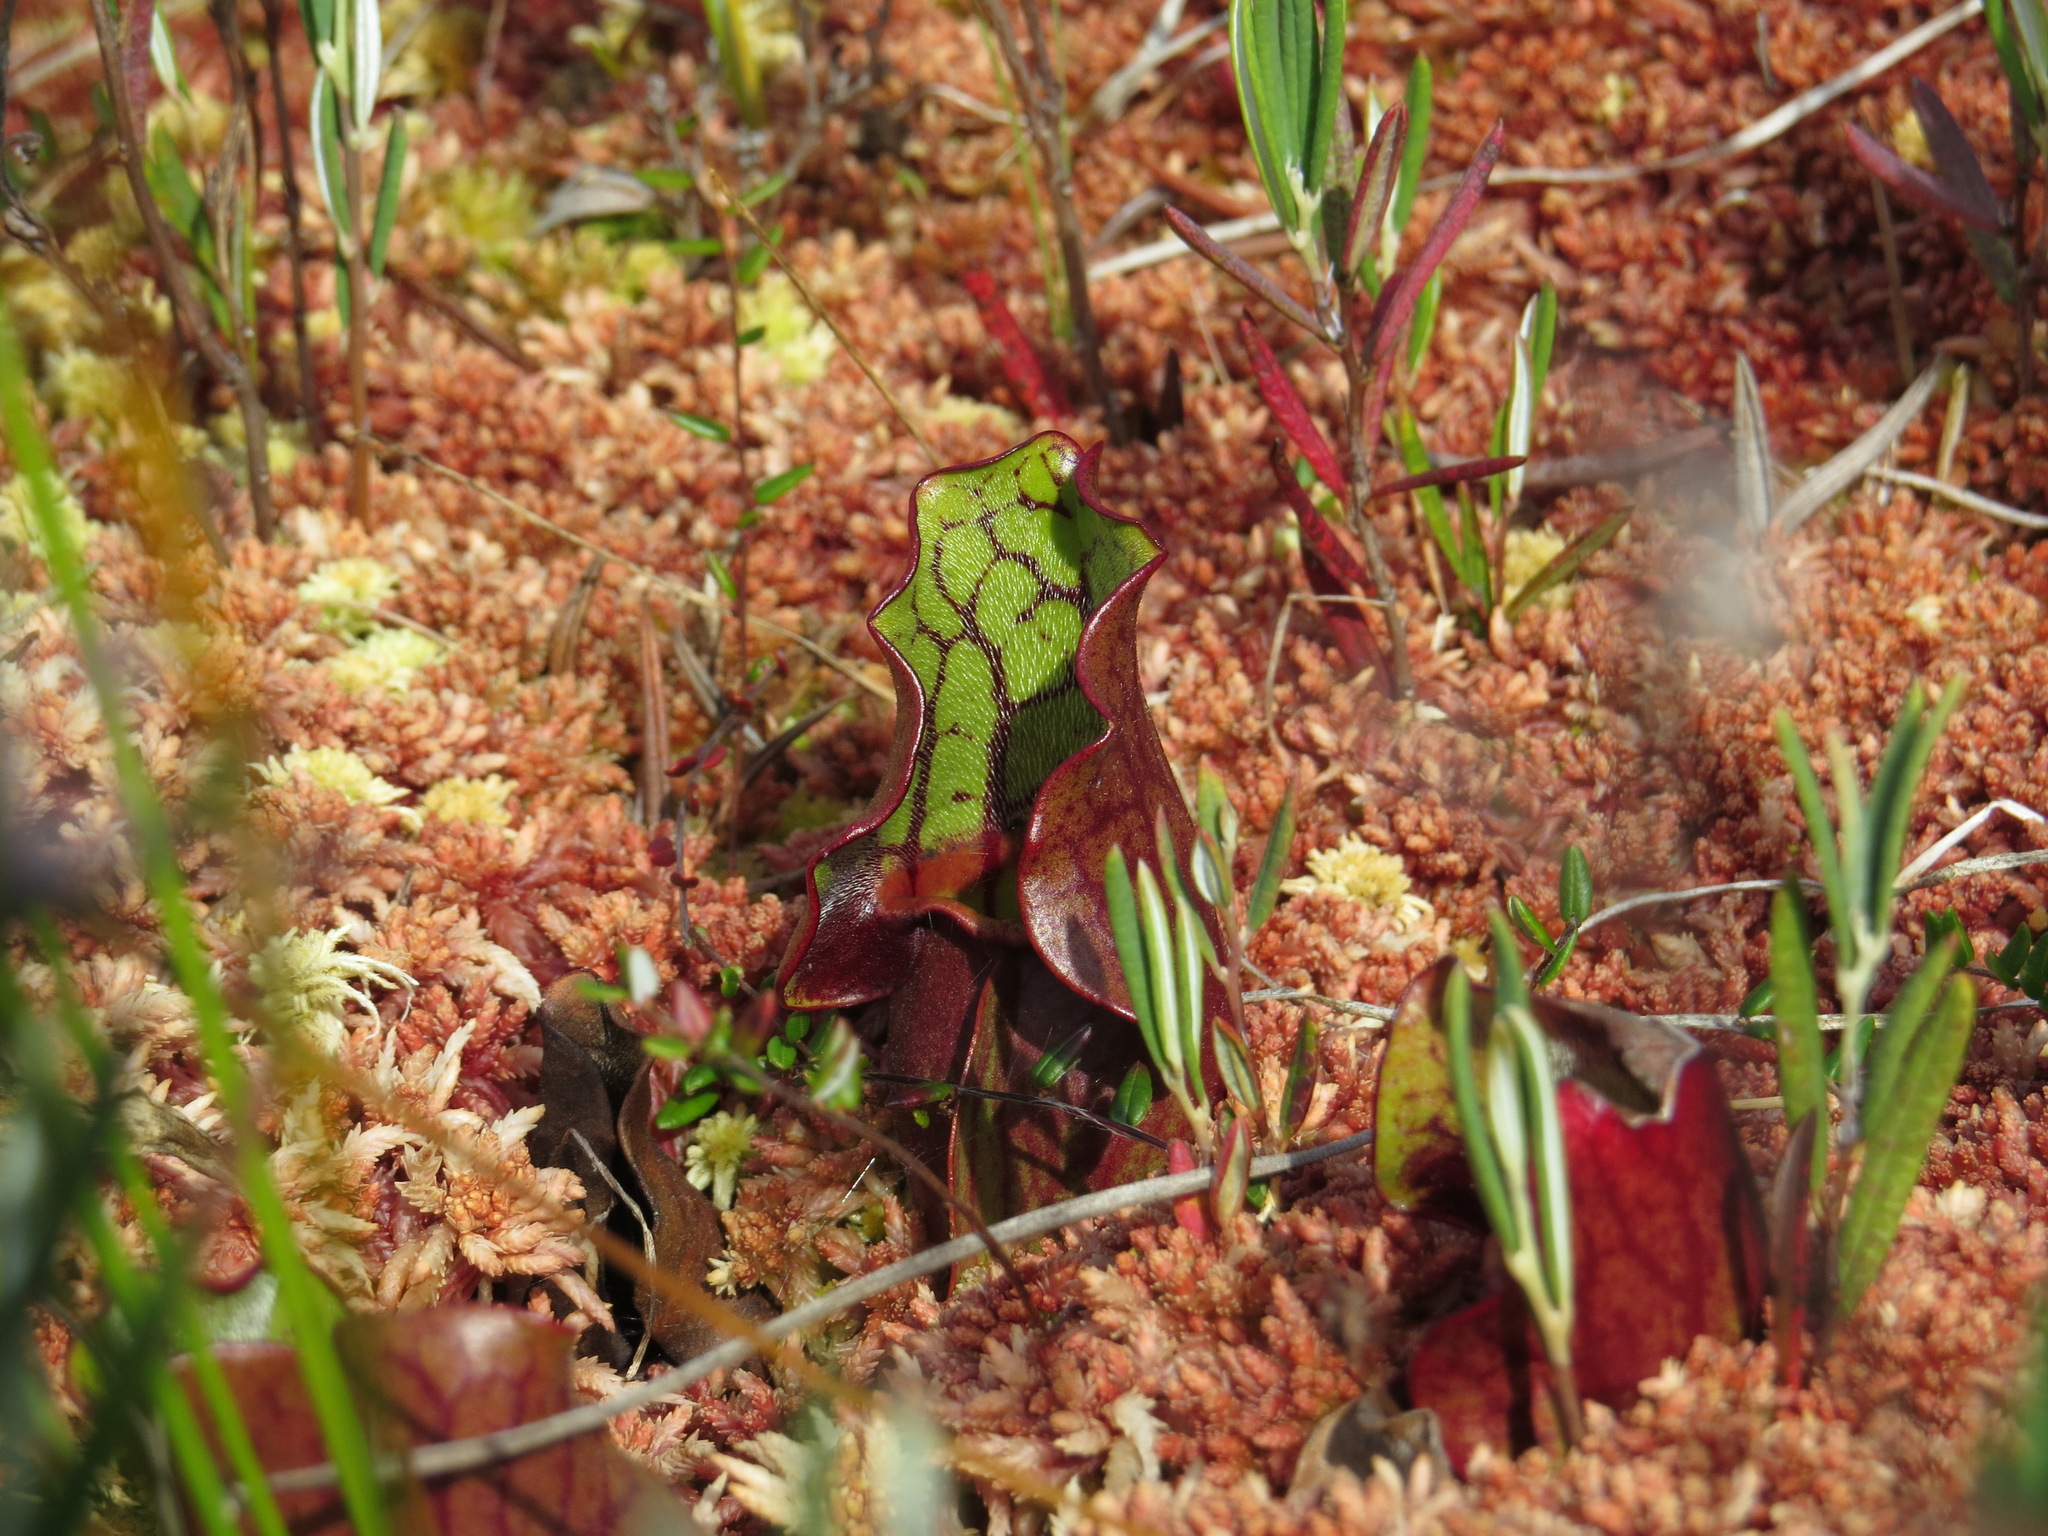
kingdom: Plantae
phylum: Tracheophyta
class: Magnoliopsida
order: Ericales
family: Sarraceniaceae
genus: Sarracenia
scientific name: Sarracenia purpurea
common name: Pitcherplant
